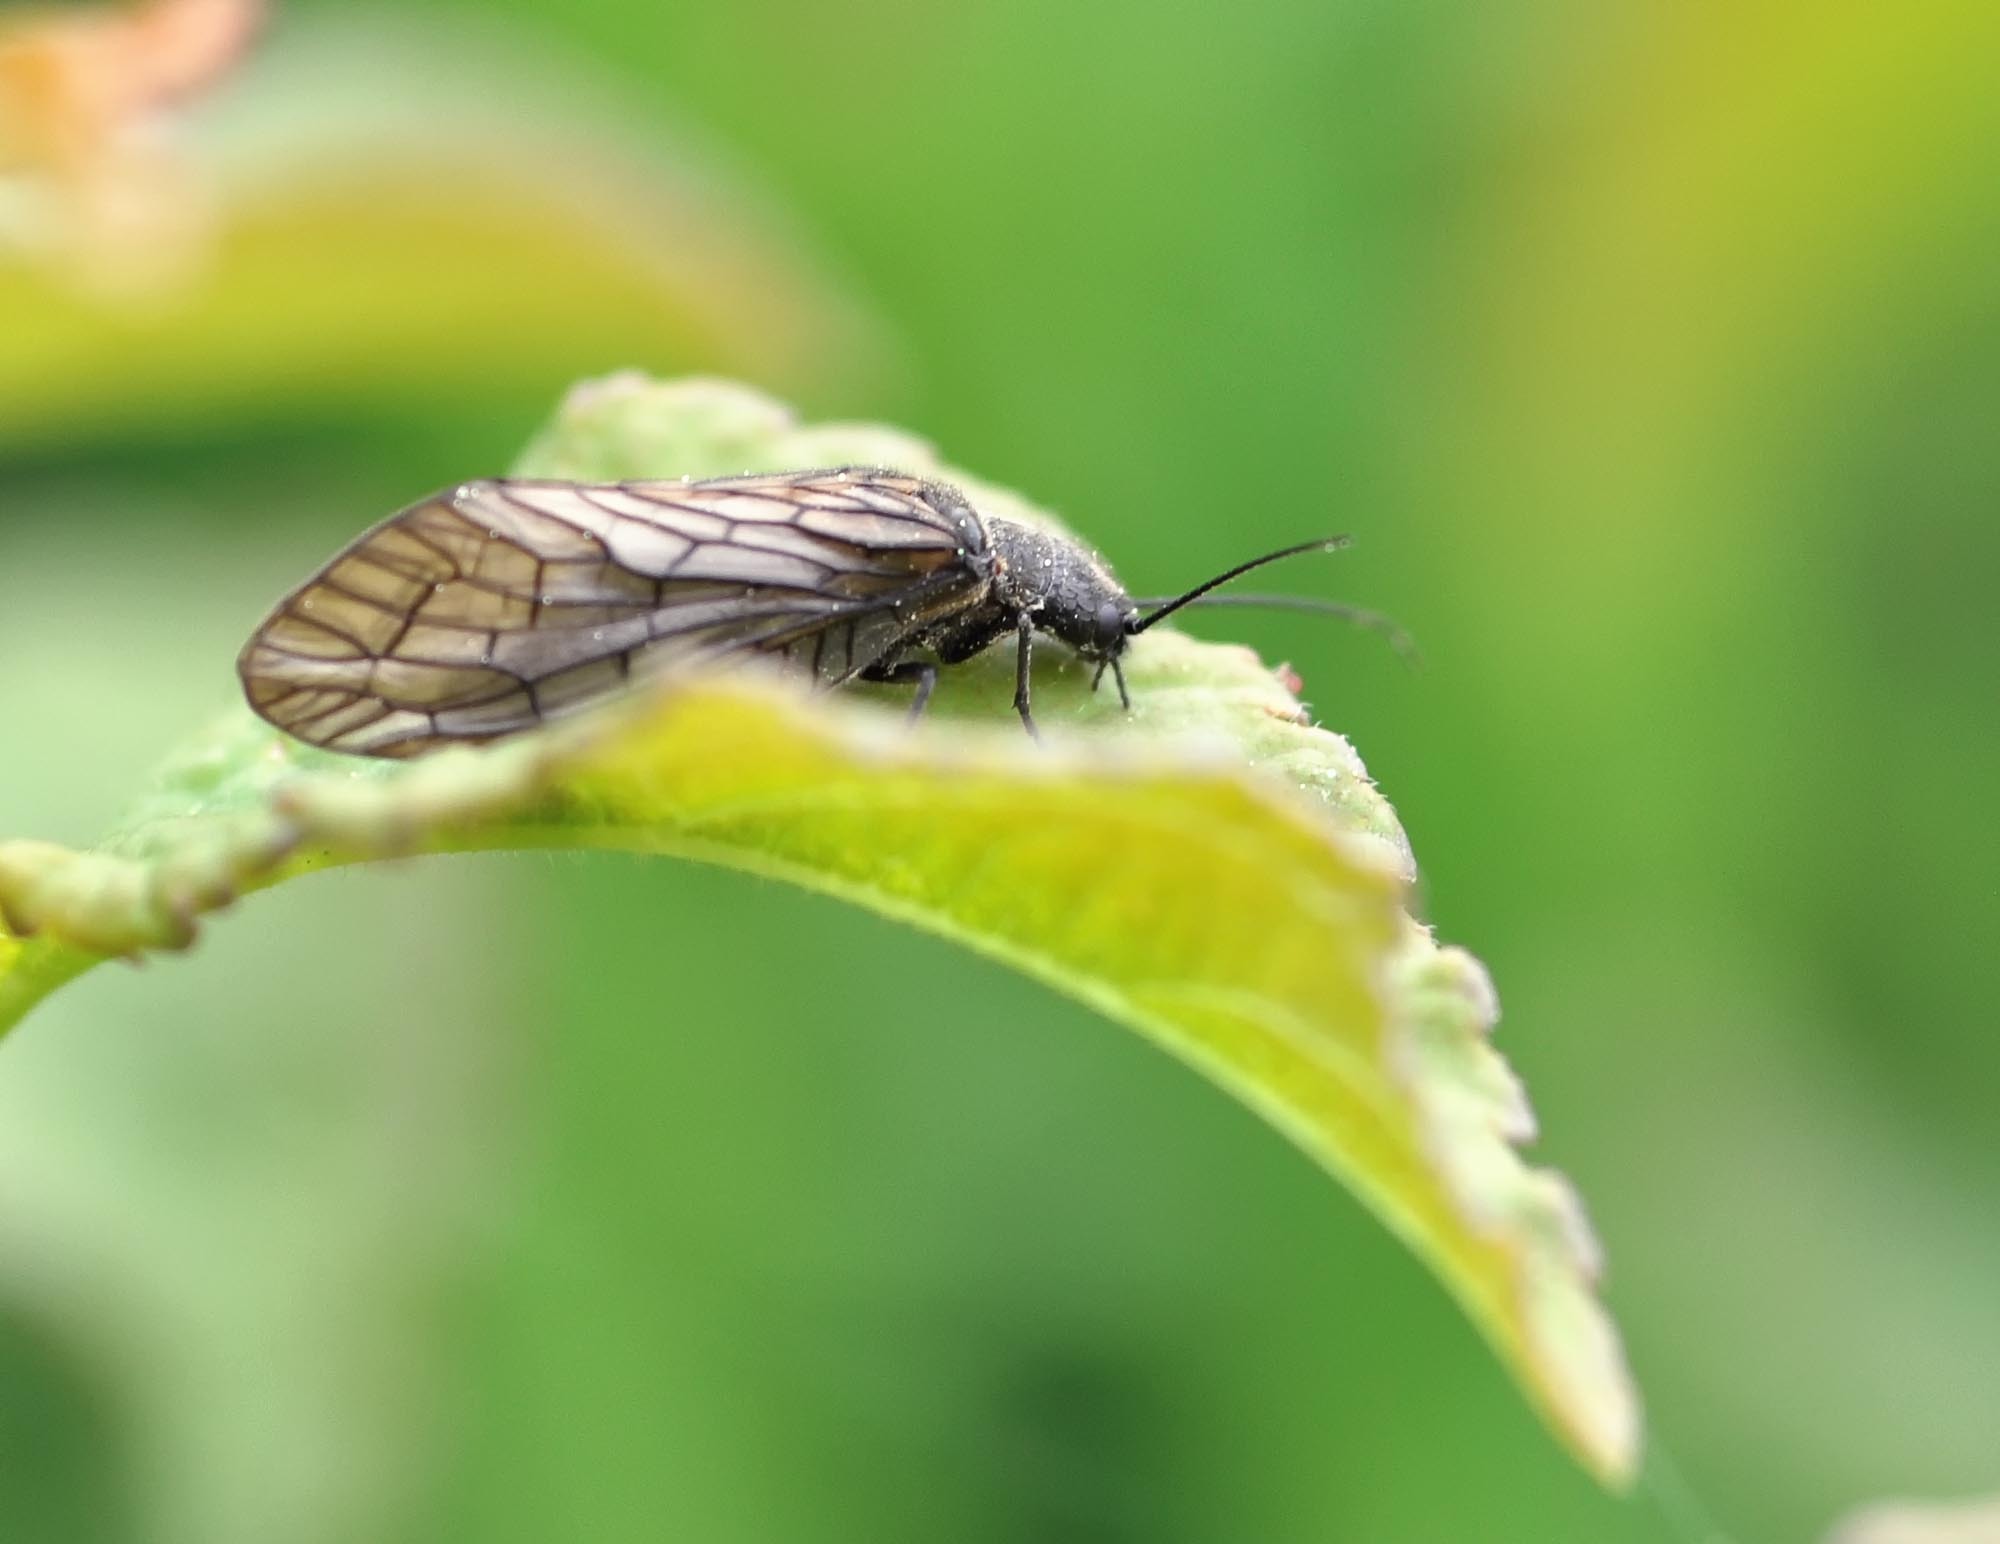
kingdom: Animalia
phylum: Arthropoda
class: Insecta
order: Megaloptera
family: Sialidae
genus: Sialis
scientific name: Sialis
